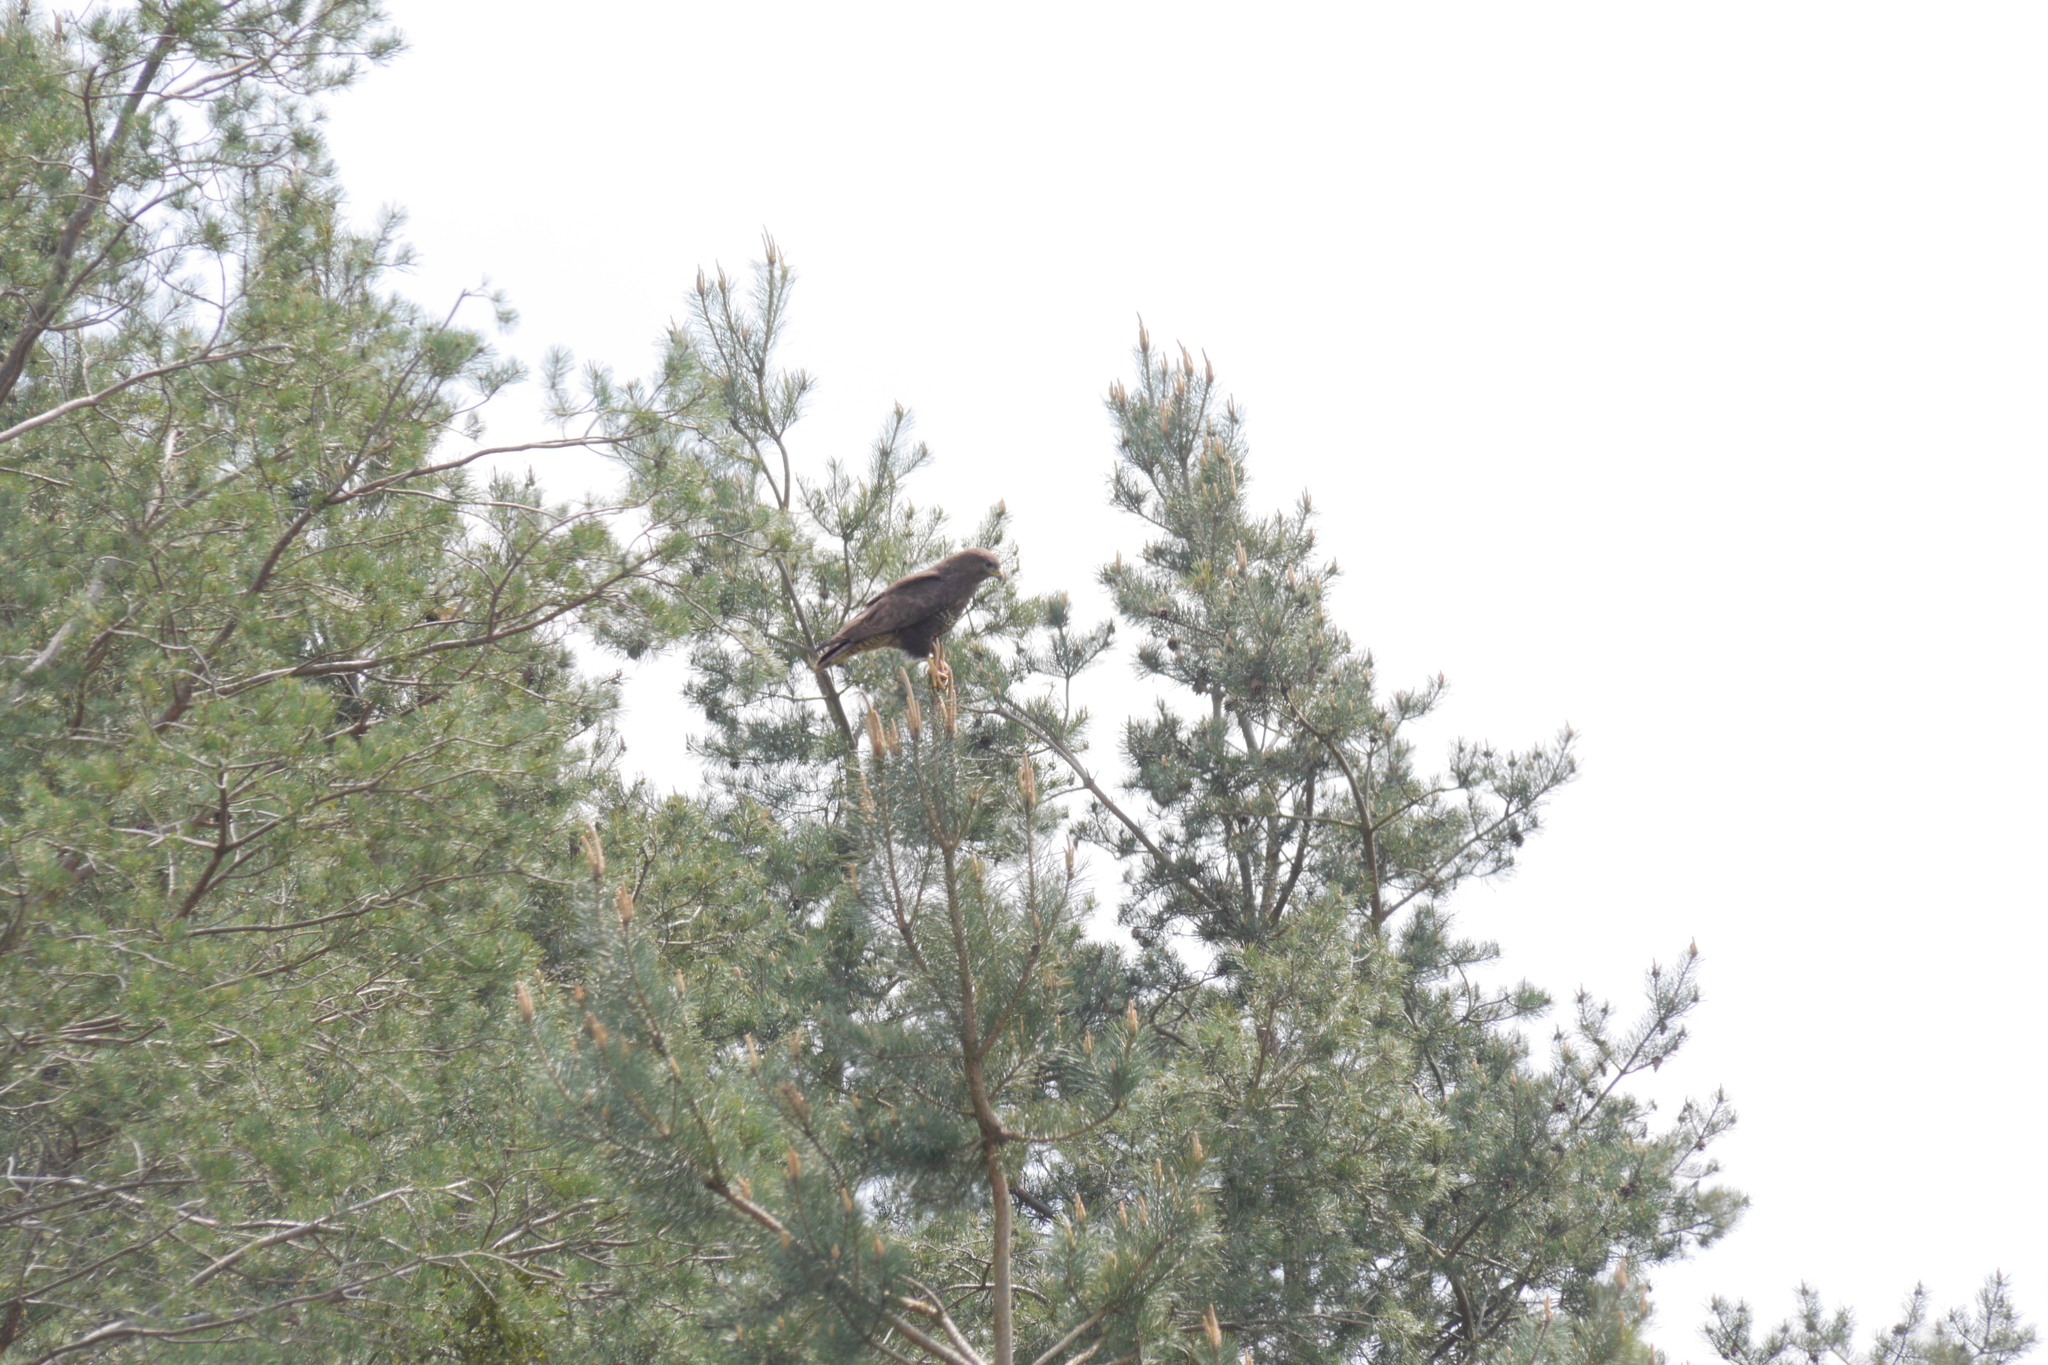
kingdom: Animalia
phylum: Chordata
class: Aves
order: Accipitriformes
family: Accipitridae
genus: Buteo
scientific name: Buteo buteo
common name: Common buzzard
